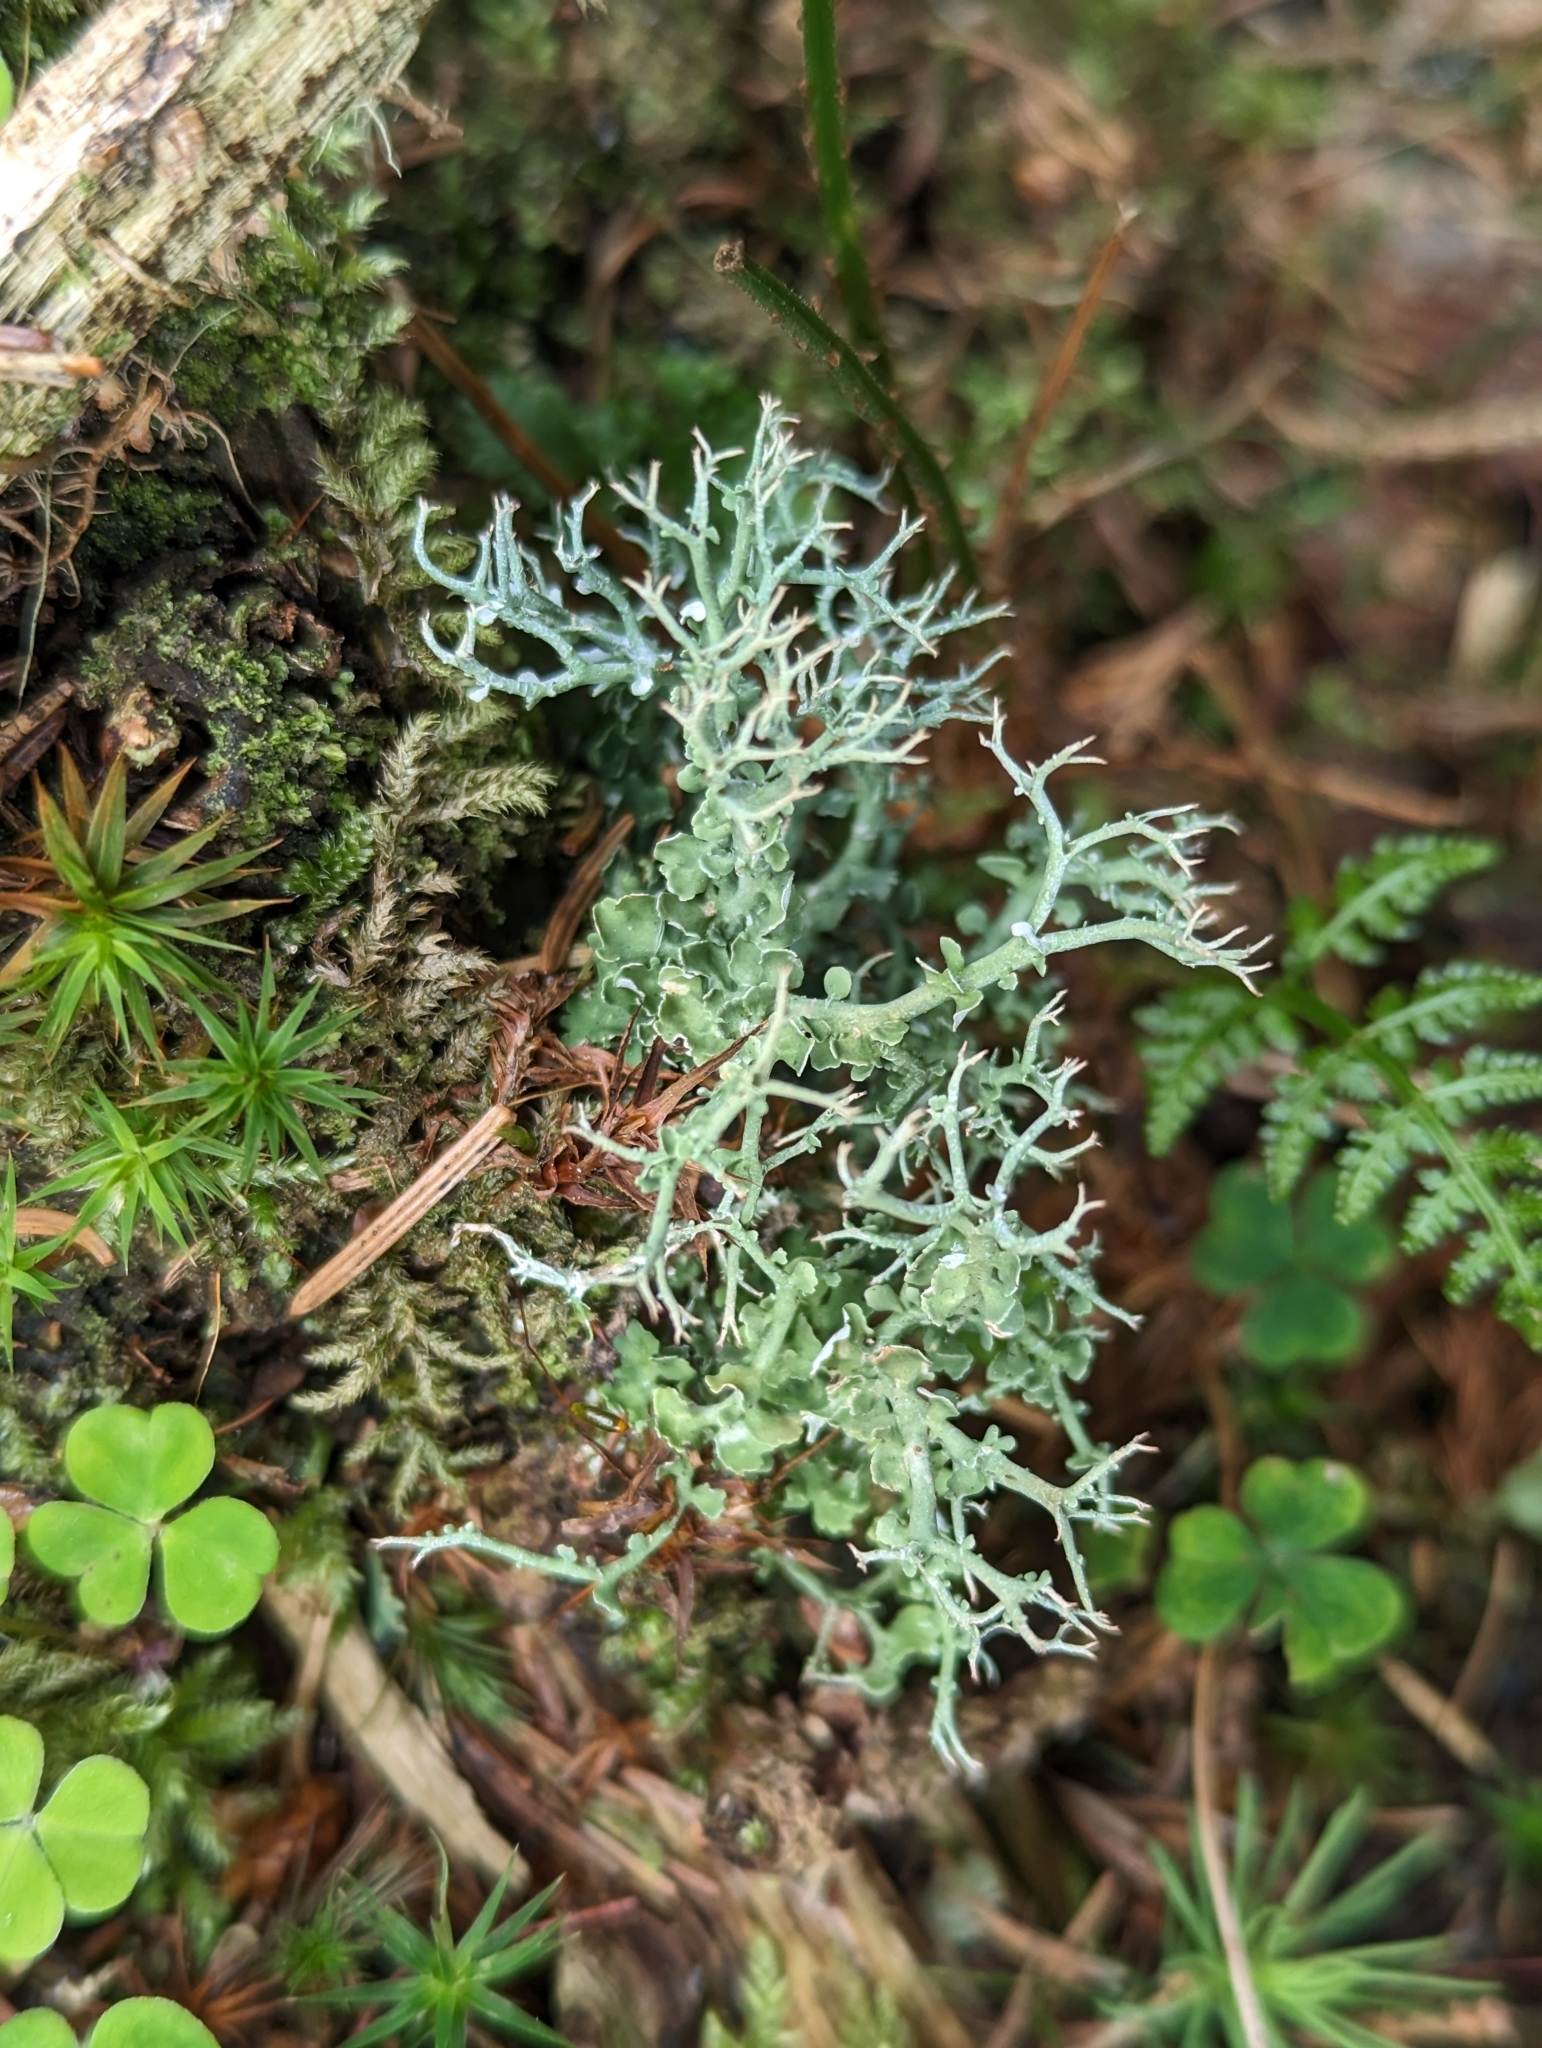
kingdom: Fungi
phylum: Ascomycota
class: Lecanoromycetes
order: Lecanorales
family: Cladoniaceae
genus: Cladonia
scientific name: Cladonia furcata
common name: Many-forked cladonia
